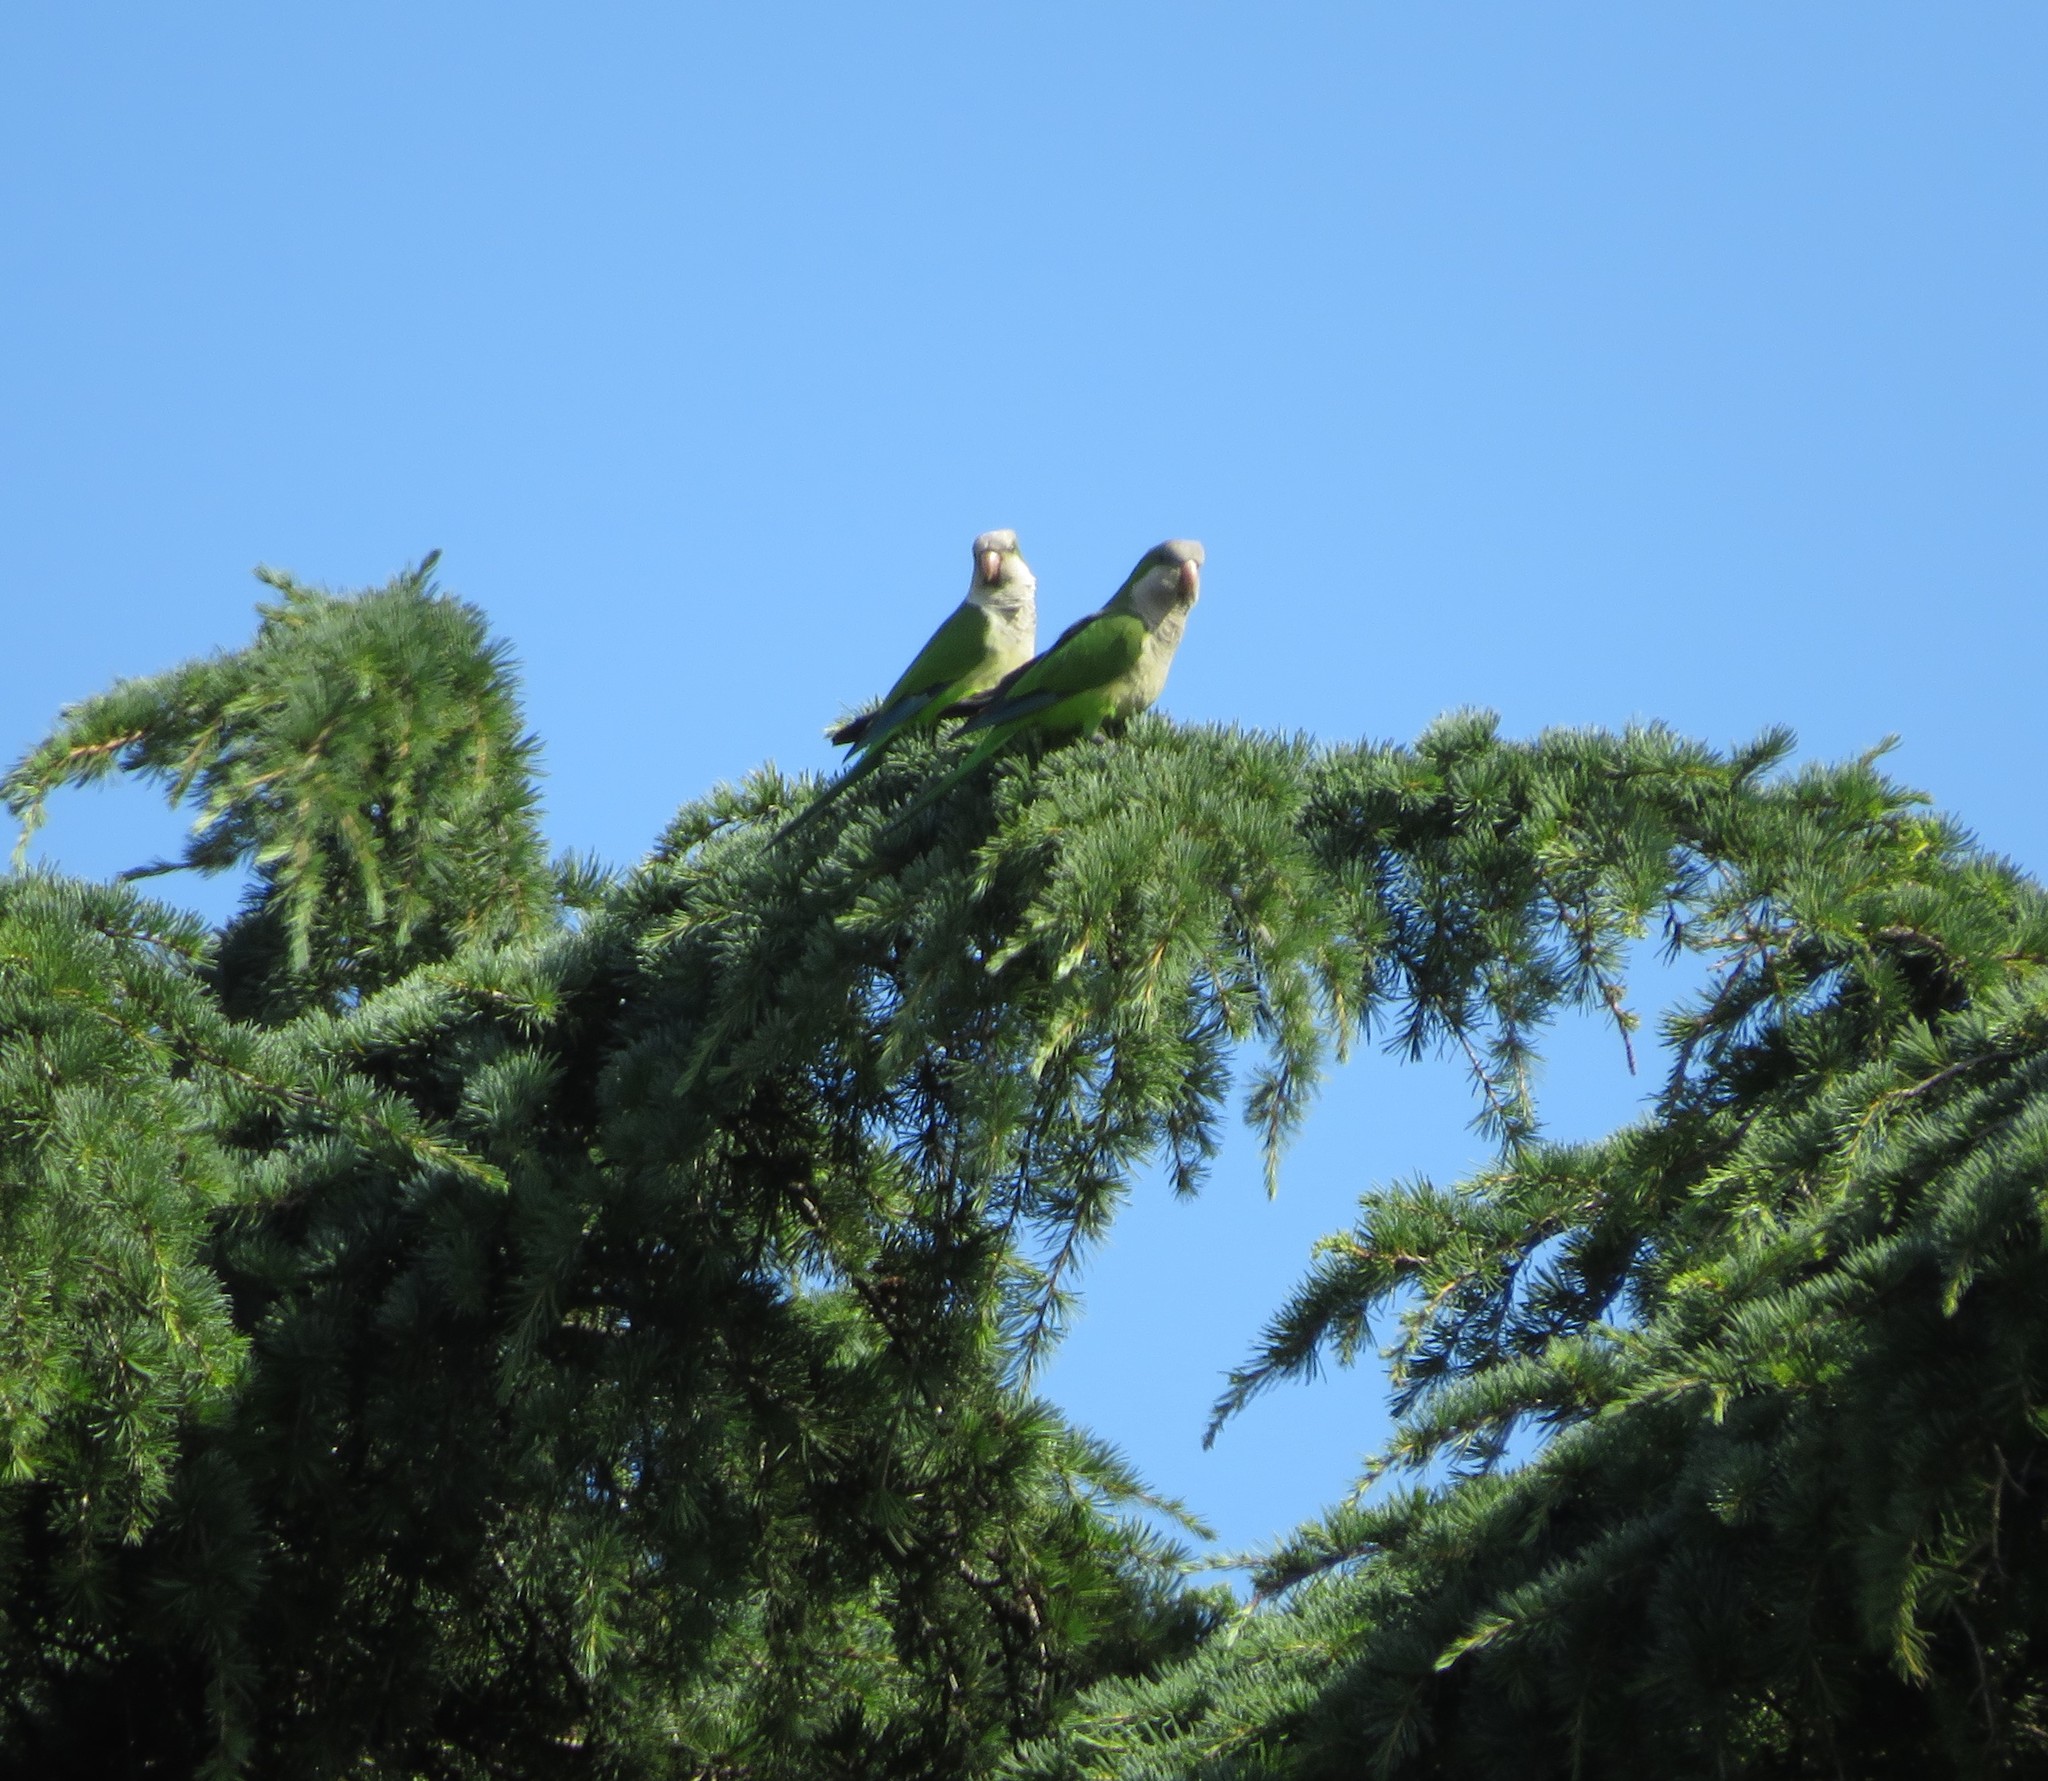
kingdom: Animalia
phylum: Chordata
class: Aves
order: Psittaciformes
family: Psittacidae
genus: Myiopsitta
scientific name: Myiopsitta monachus
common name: Monk parakeet
